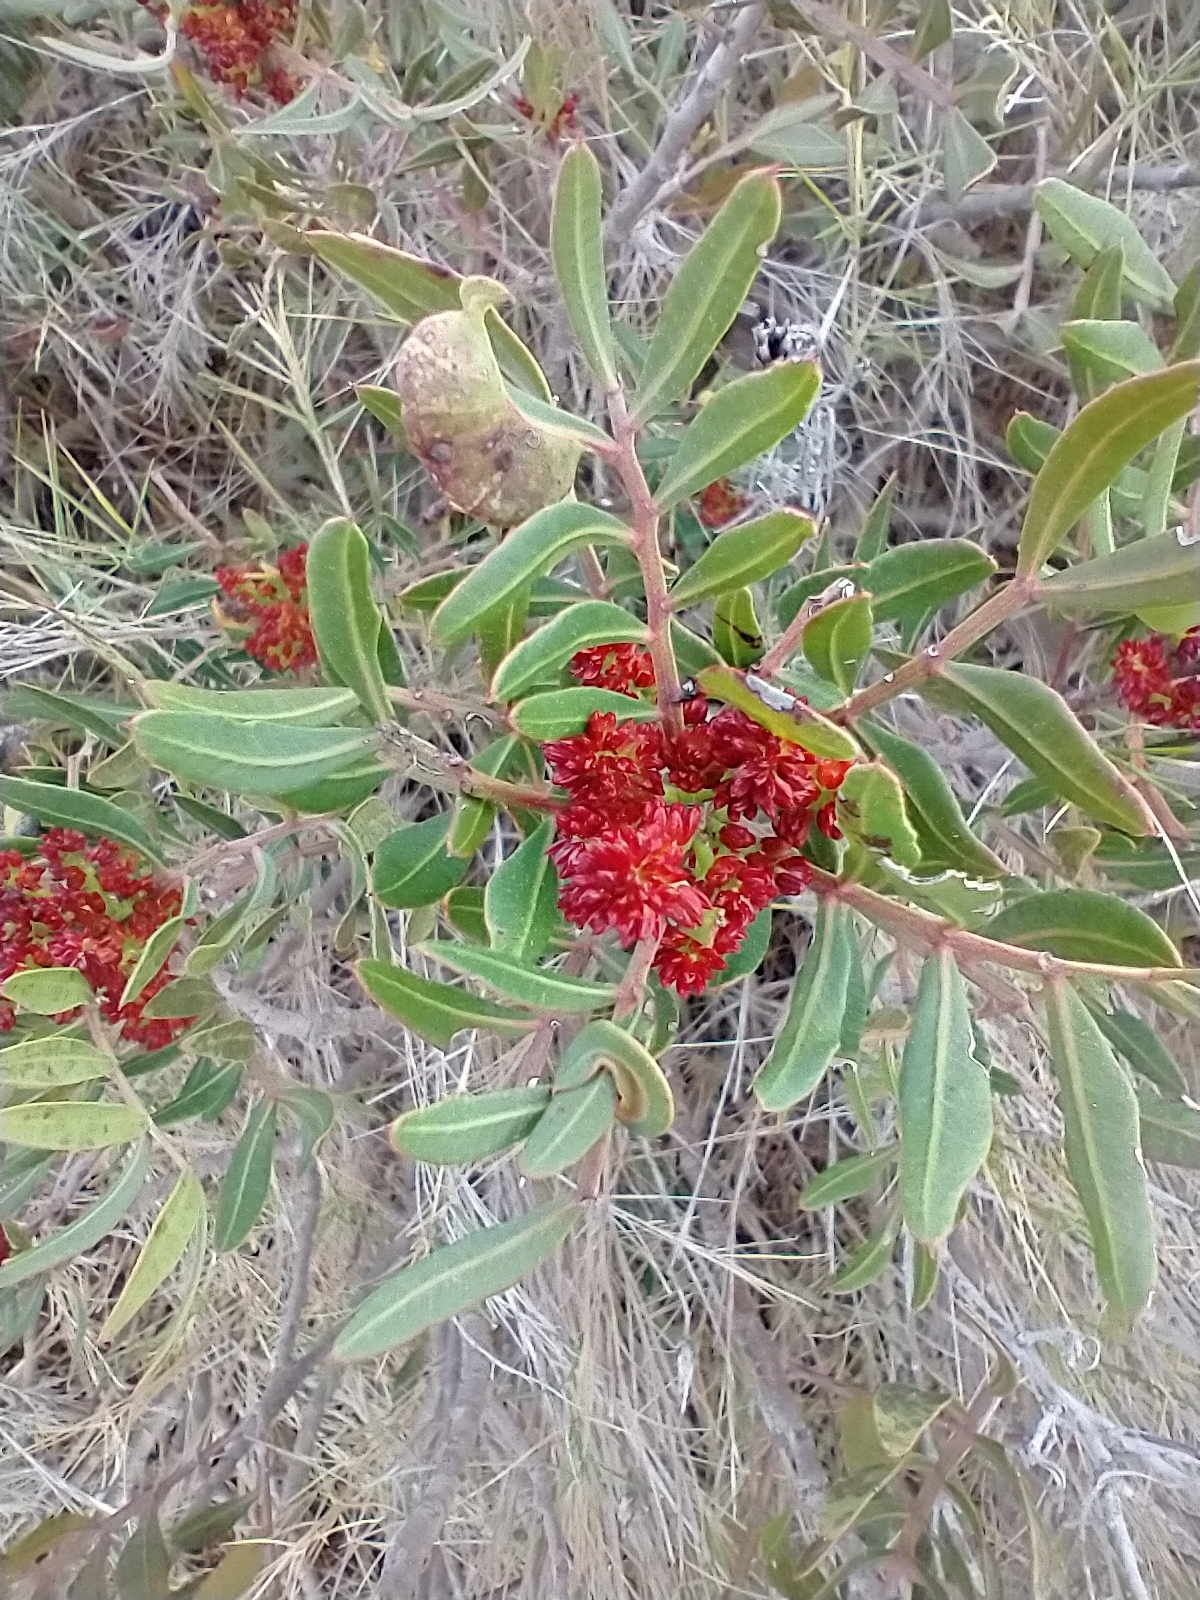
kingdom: Plantae
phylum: Tracheophyta
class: Magnoliopsida
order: Sapindales
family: Anacardiaceae
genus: Pistacia
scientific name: Pistacia lentiscus
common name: Lentisk
